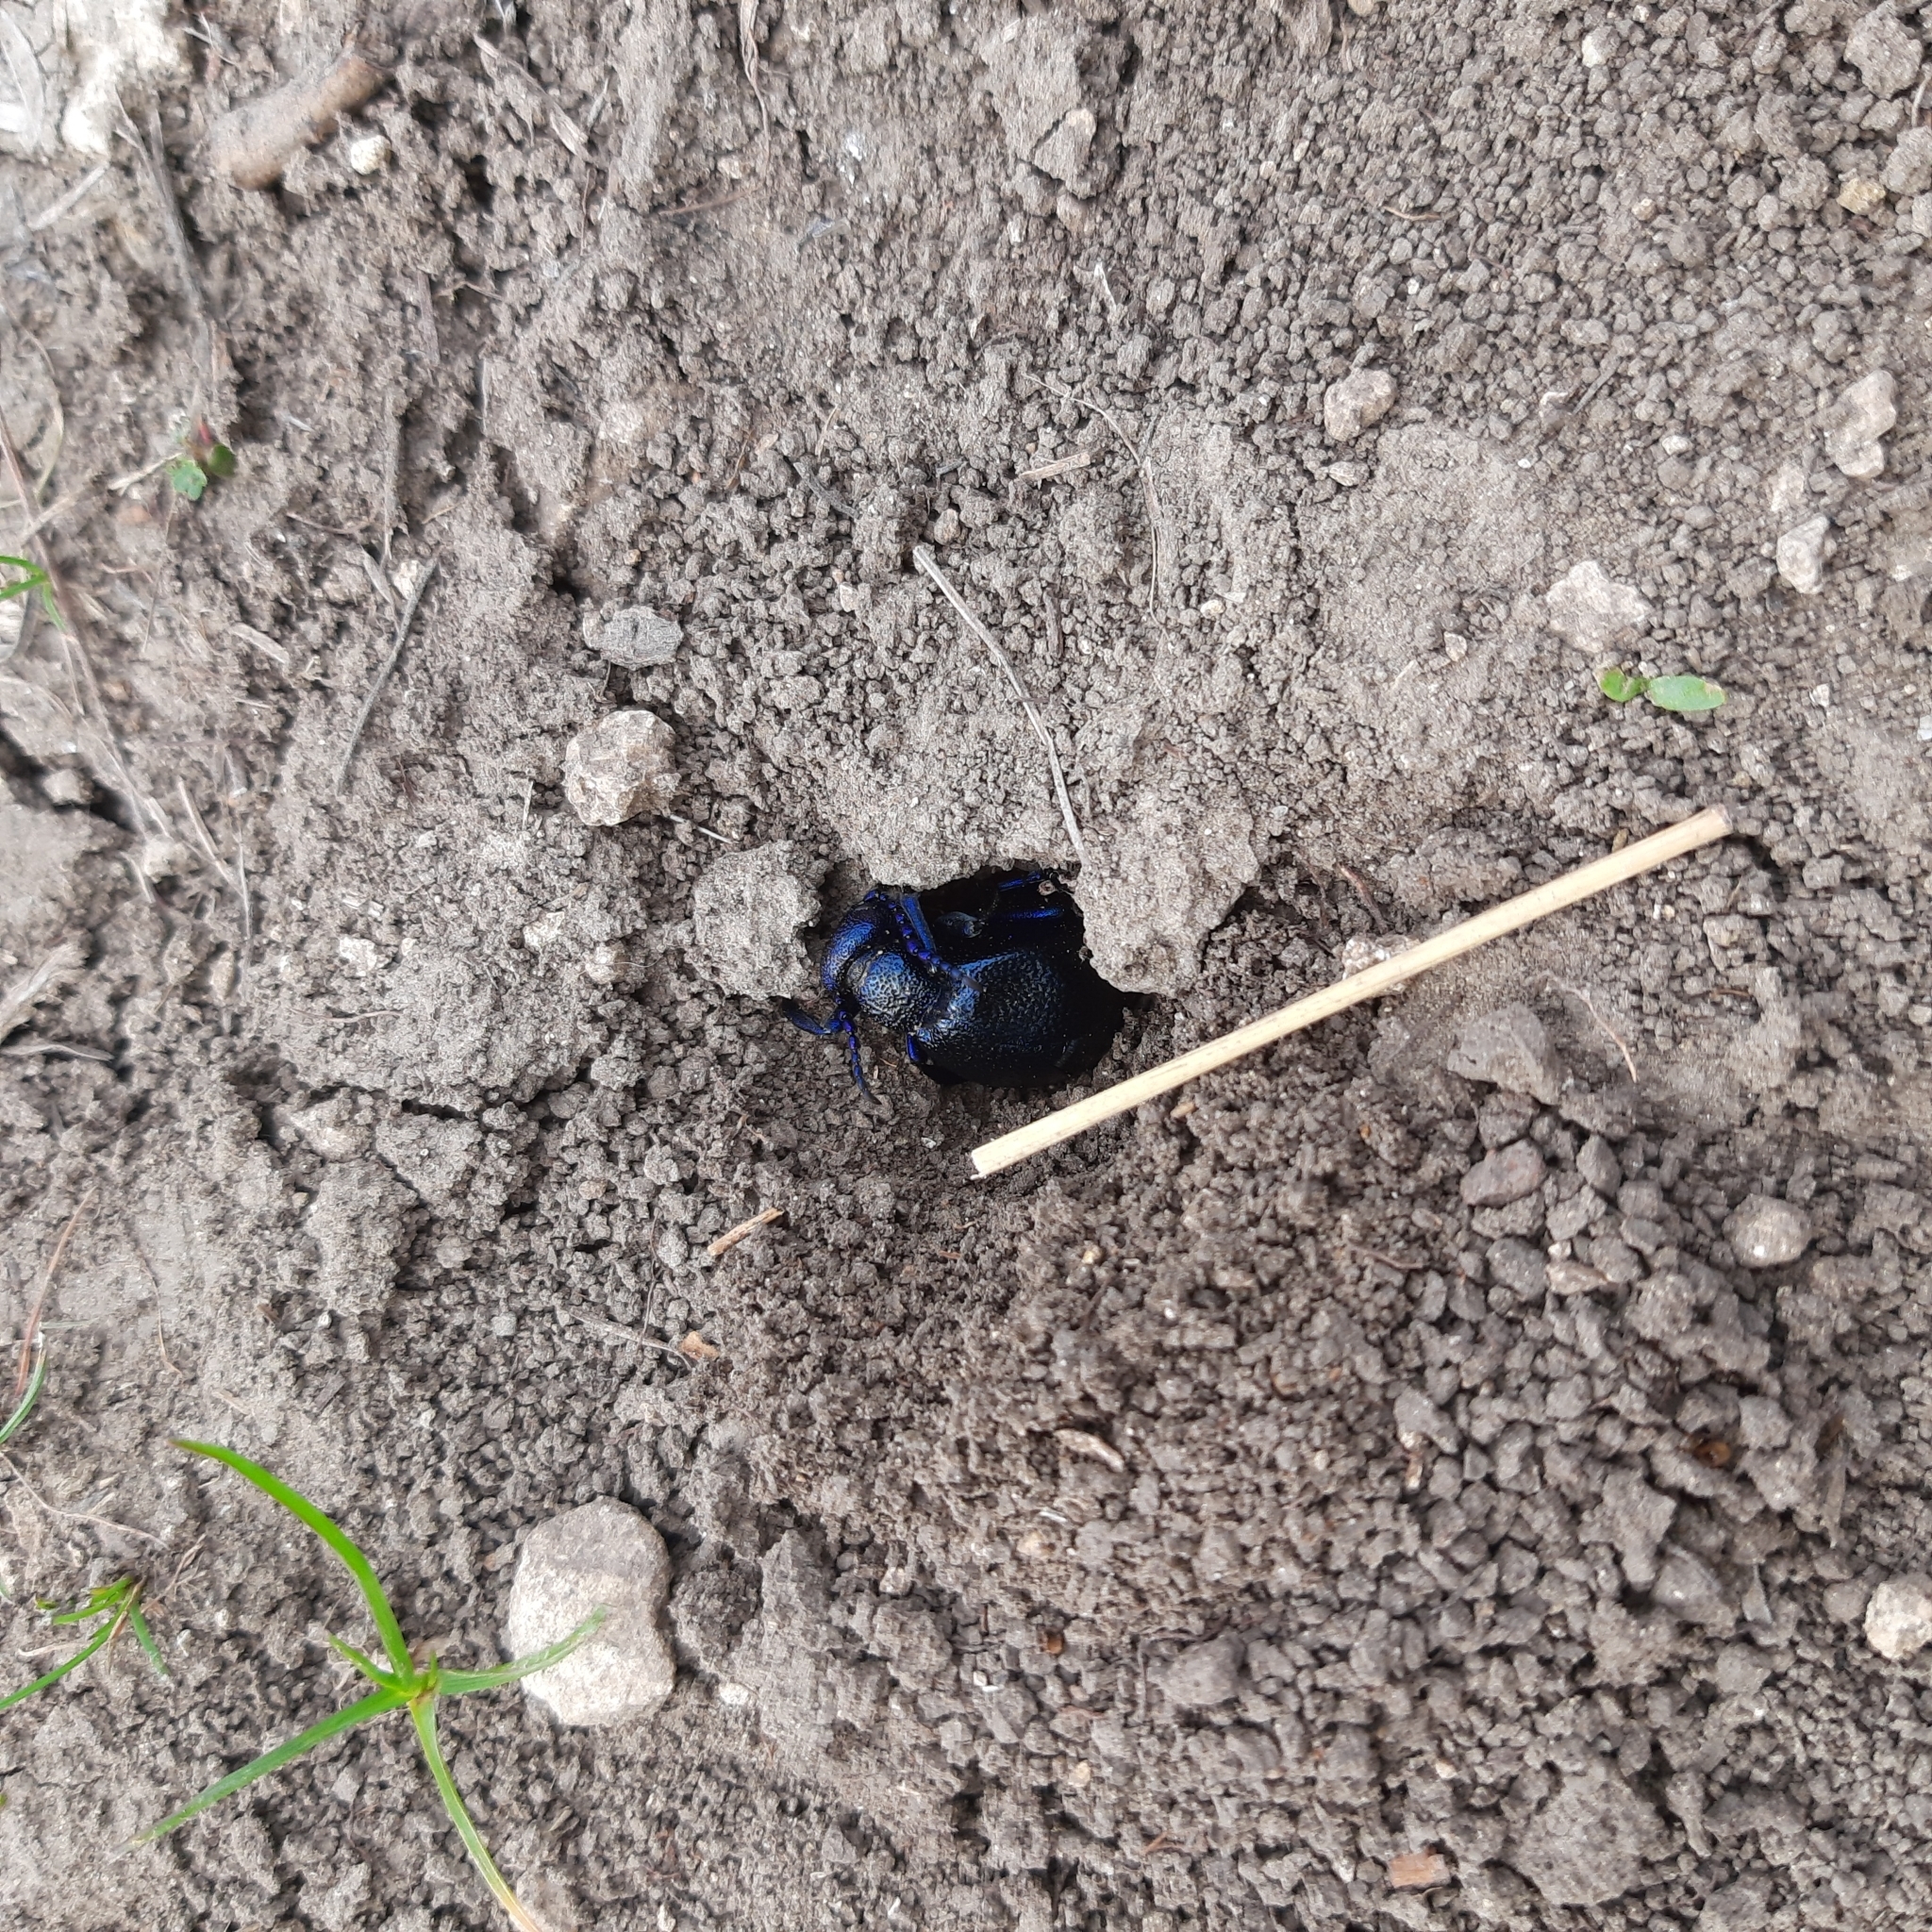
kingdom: Animalia
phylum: Arthropoda
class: Insecta
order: Coleoptera
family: Meloidae
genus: Meloe
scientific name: Meloe proscarabaeus
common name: Black oil-beetle
